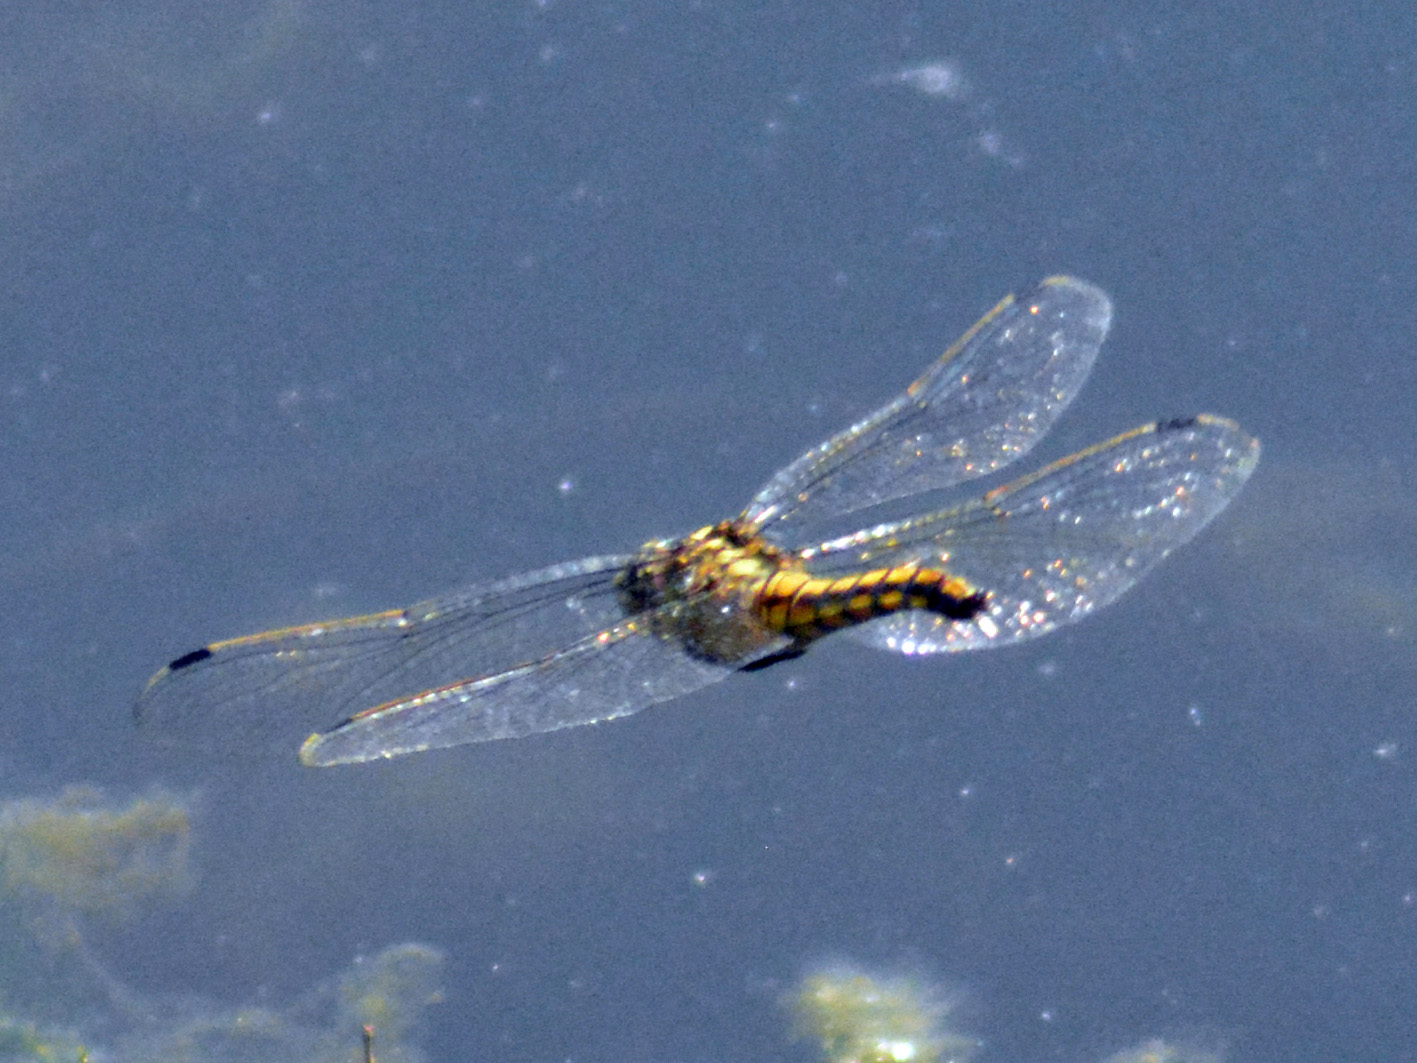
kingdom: Animalia
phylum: Arthropoda
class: Insecta
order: Odonata
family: Libellulidae
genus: Orthetrum
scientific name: Orthetrum cancellatum
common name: Black-tailed skimmer
